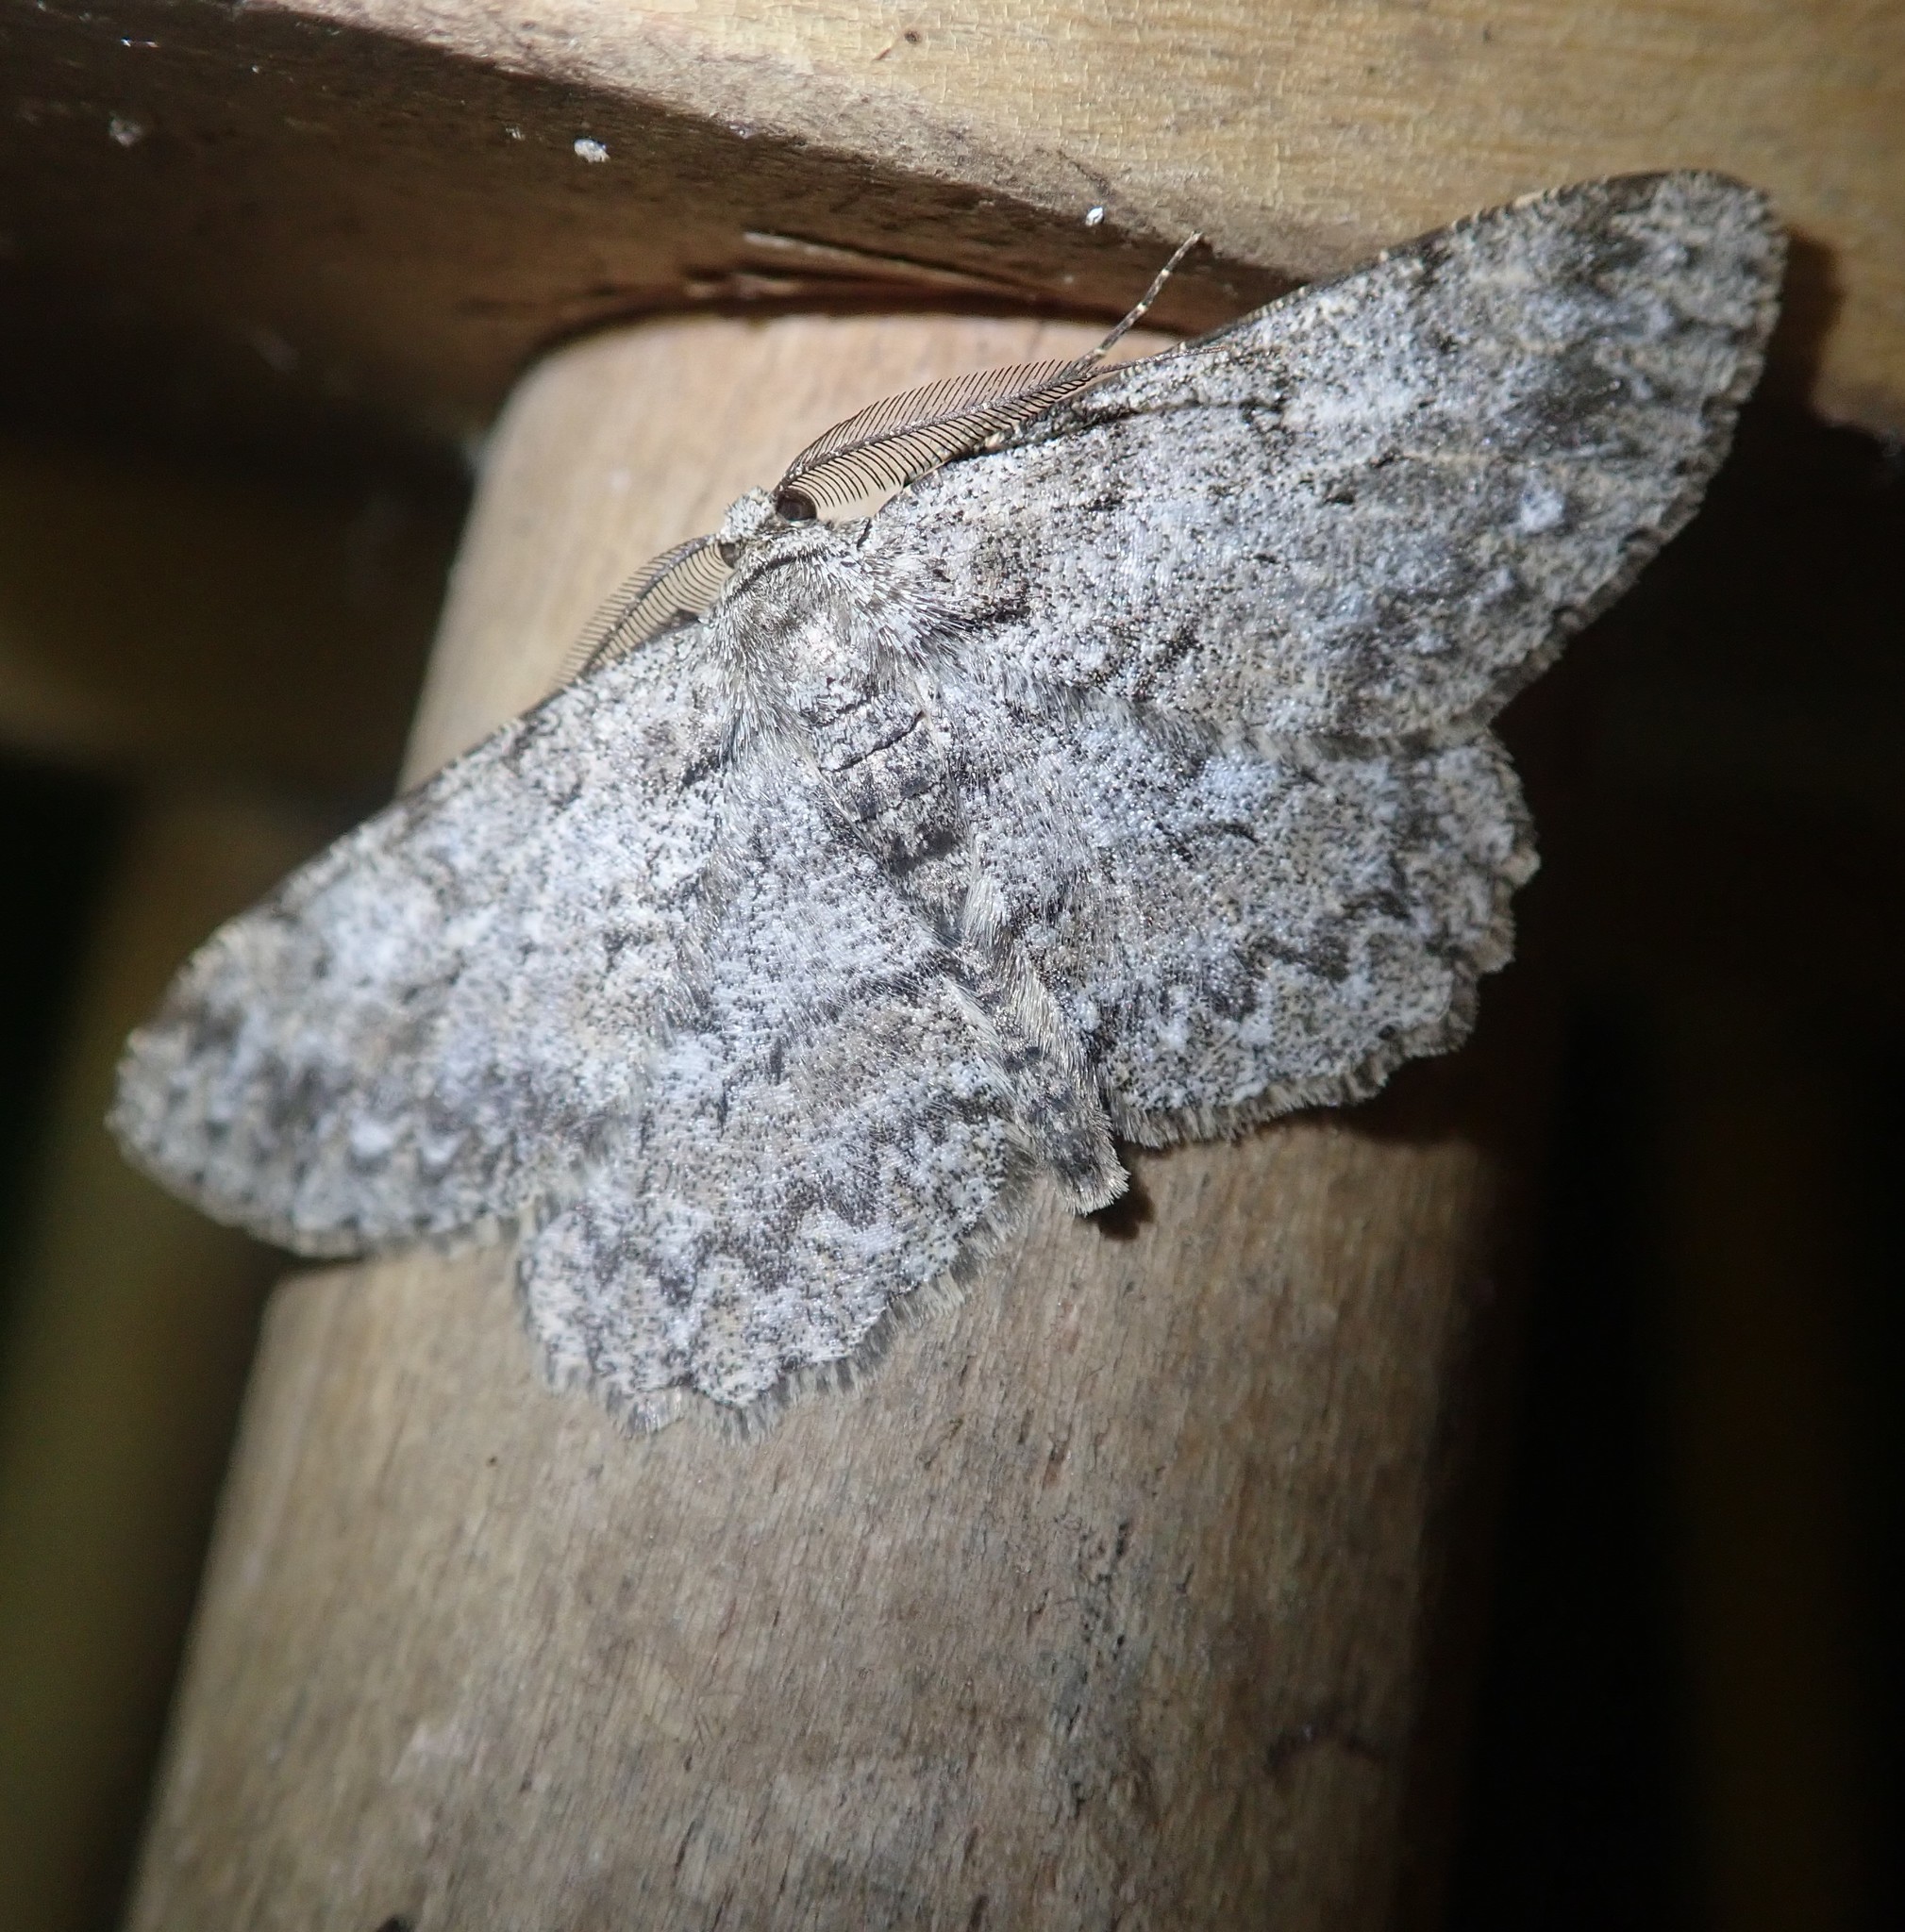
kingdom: Animalia
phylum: Arthropoda
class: Insecta
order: Lepidoptera
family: Geometridae
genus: Hypomecis
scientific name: Hypomecis punctinalis
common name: Pale oak beauty
